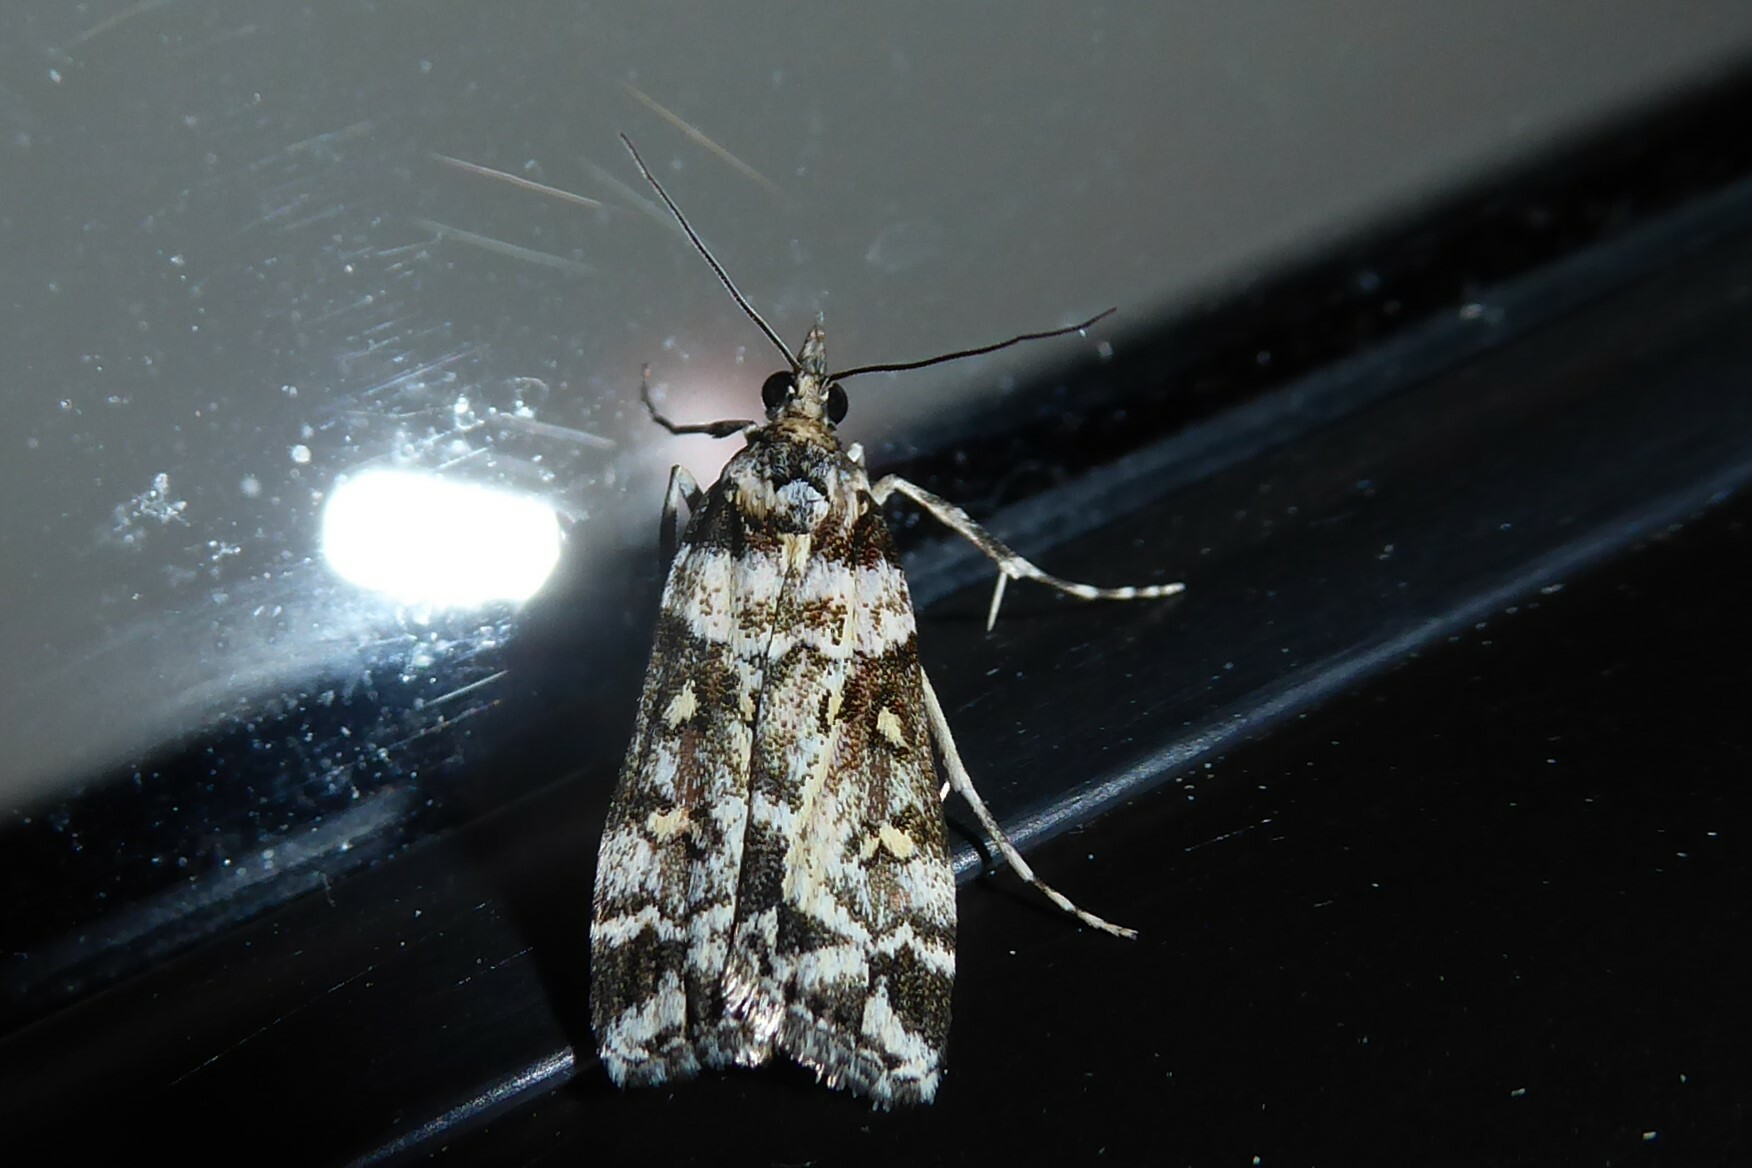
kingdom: Animalia
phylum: Arthropoda
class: Insecta
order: Lepidoptera
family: Crambidae
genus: Eudonia
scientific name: Eudonia diphtheralis
